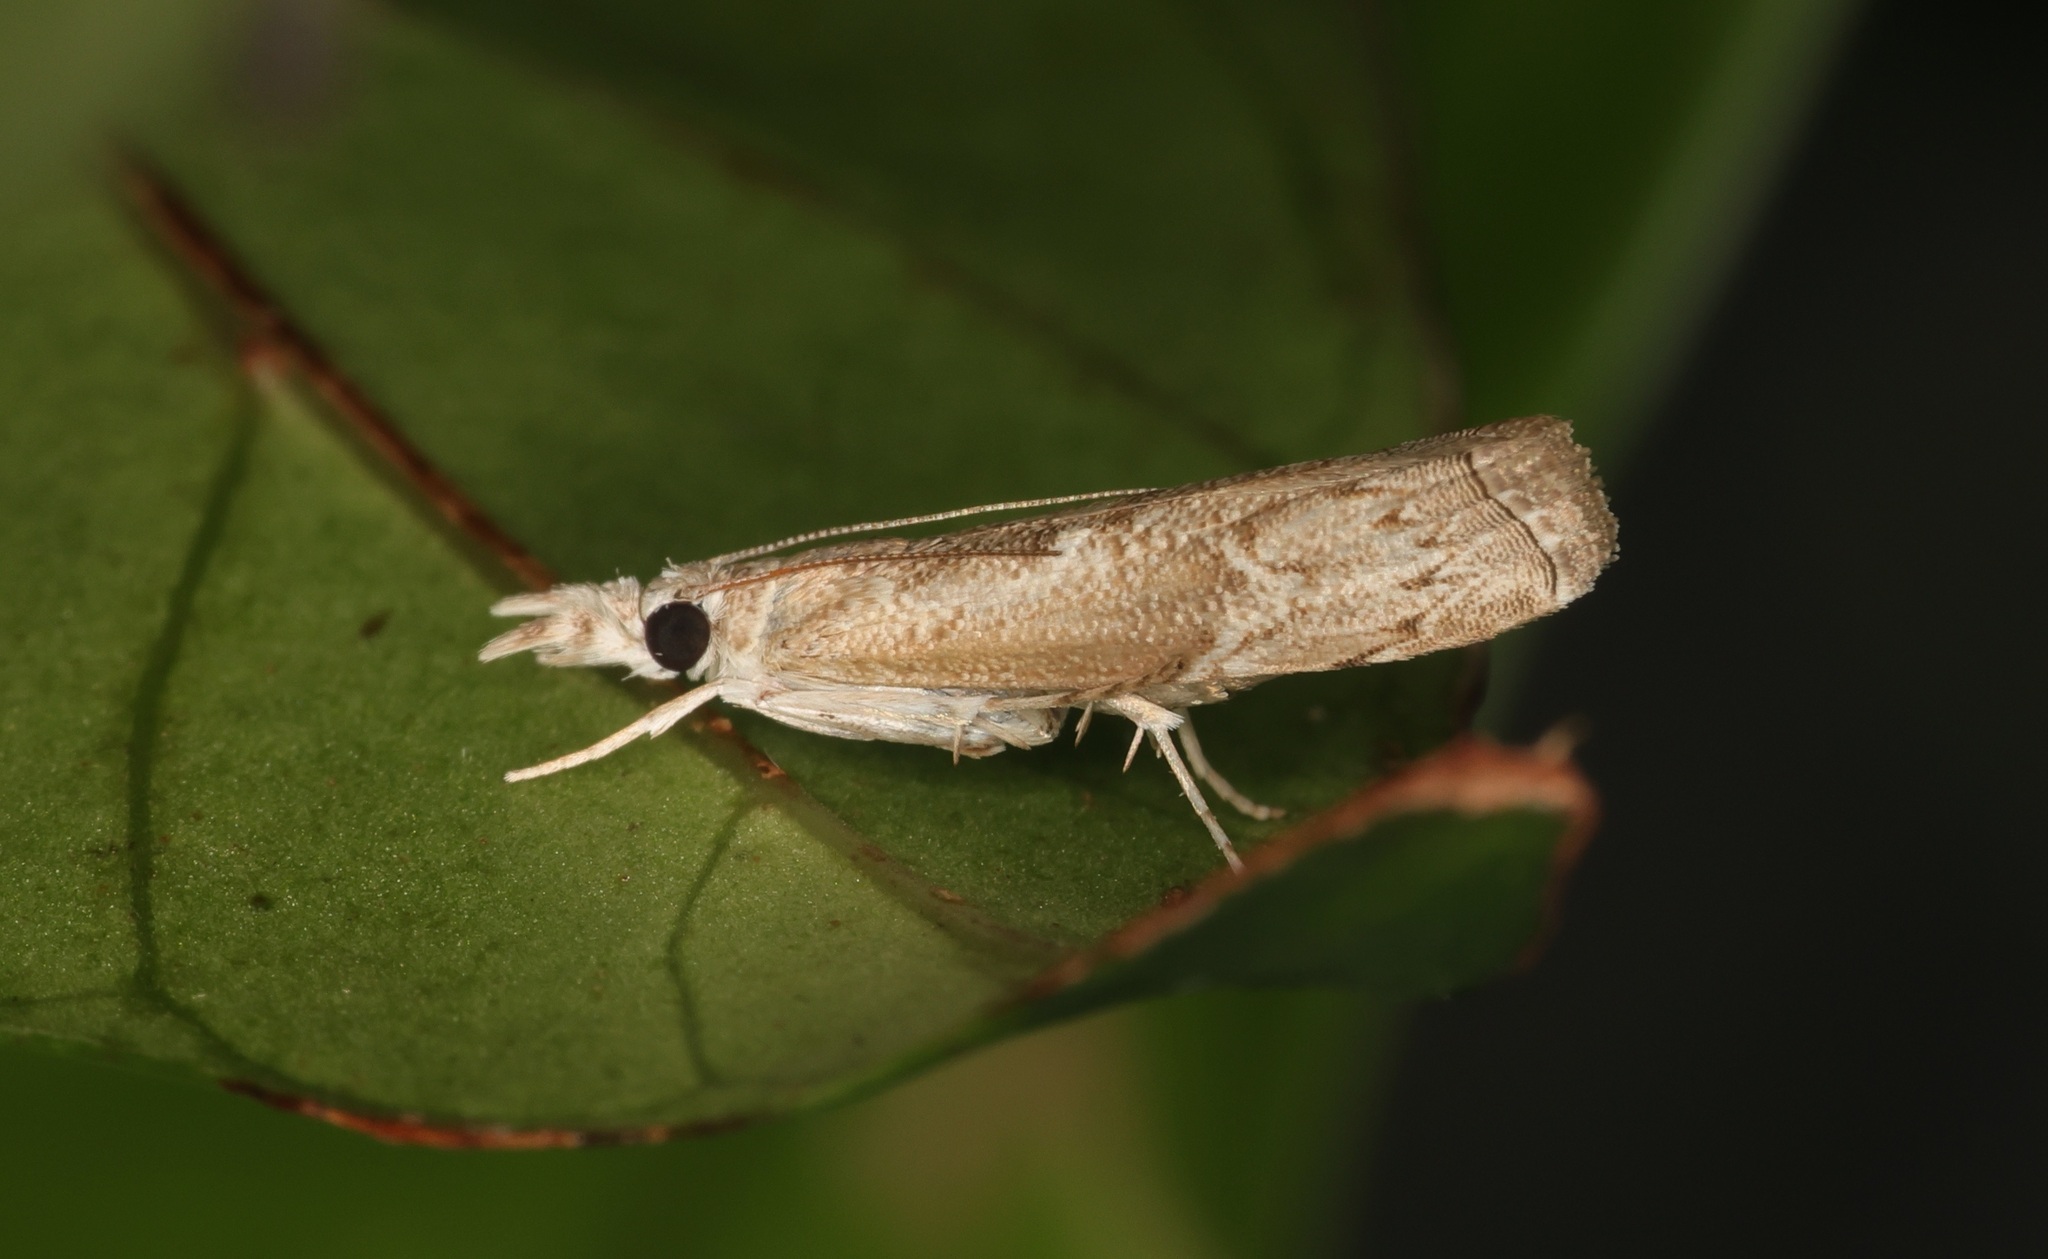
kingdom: Animalia
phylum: Arthropoda
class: Insecta
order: Lepidoptera
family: Crambidae
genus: Culladia
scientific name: Culladia hastiferalis
